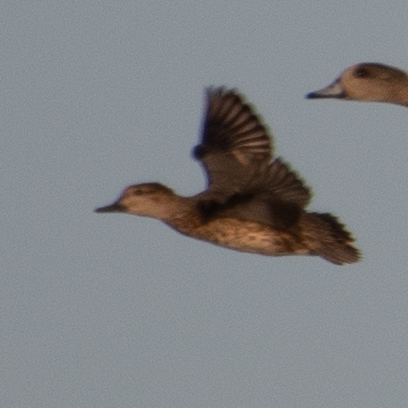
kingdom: Animalia
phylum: Chordata
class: Aves
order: Anseriformes
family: Anatidae
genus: Anas
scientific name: Anas crecca
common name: Eurasian teal
